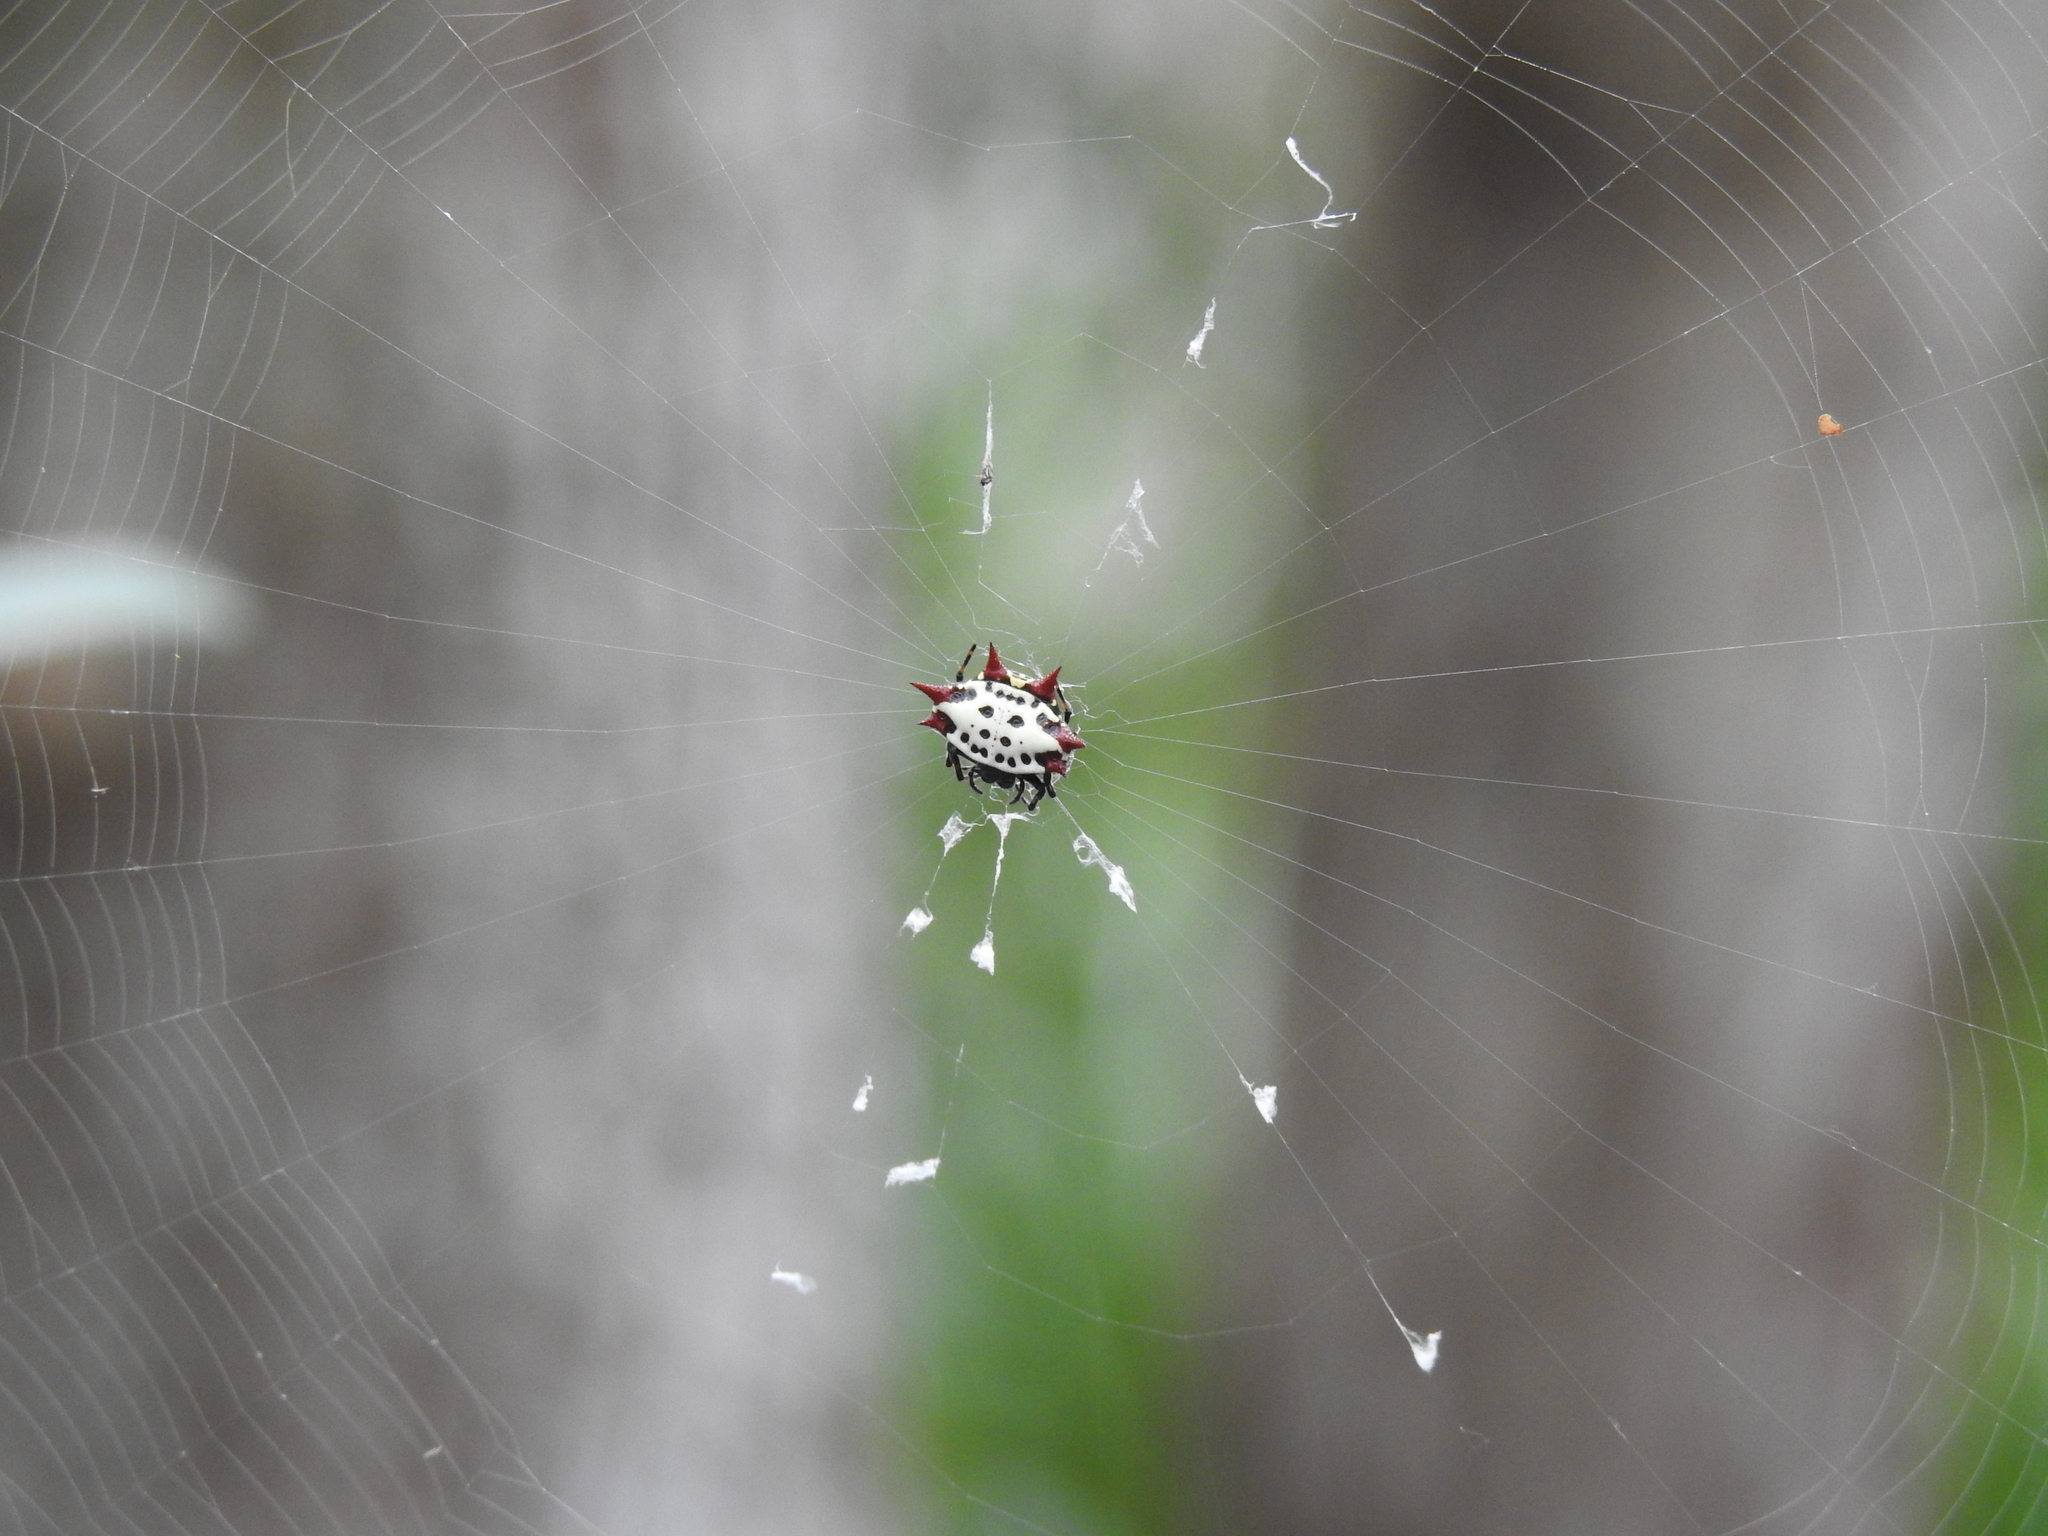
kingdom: Animalia
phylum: Arthropoda
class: Arachnida
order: Araneae
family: Araneidae
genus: Gasteracantha
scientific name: Gasteracantha cancriformis
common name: Orb weavers
